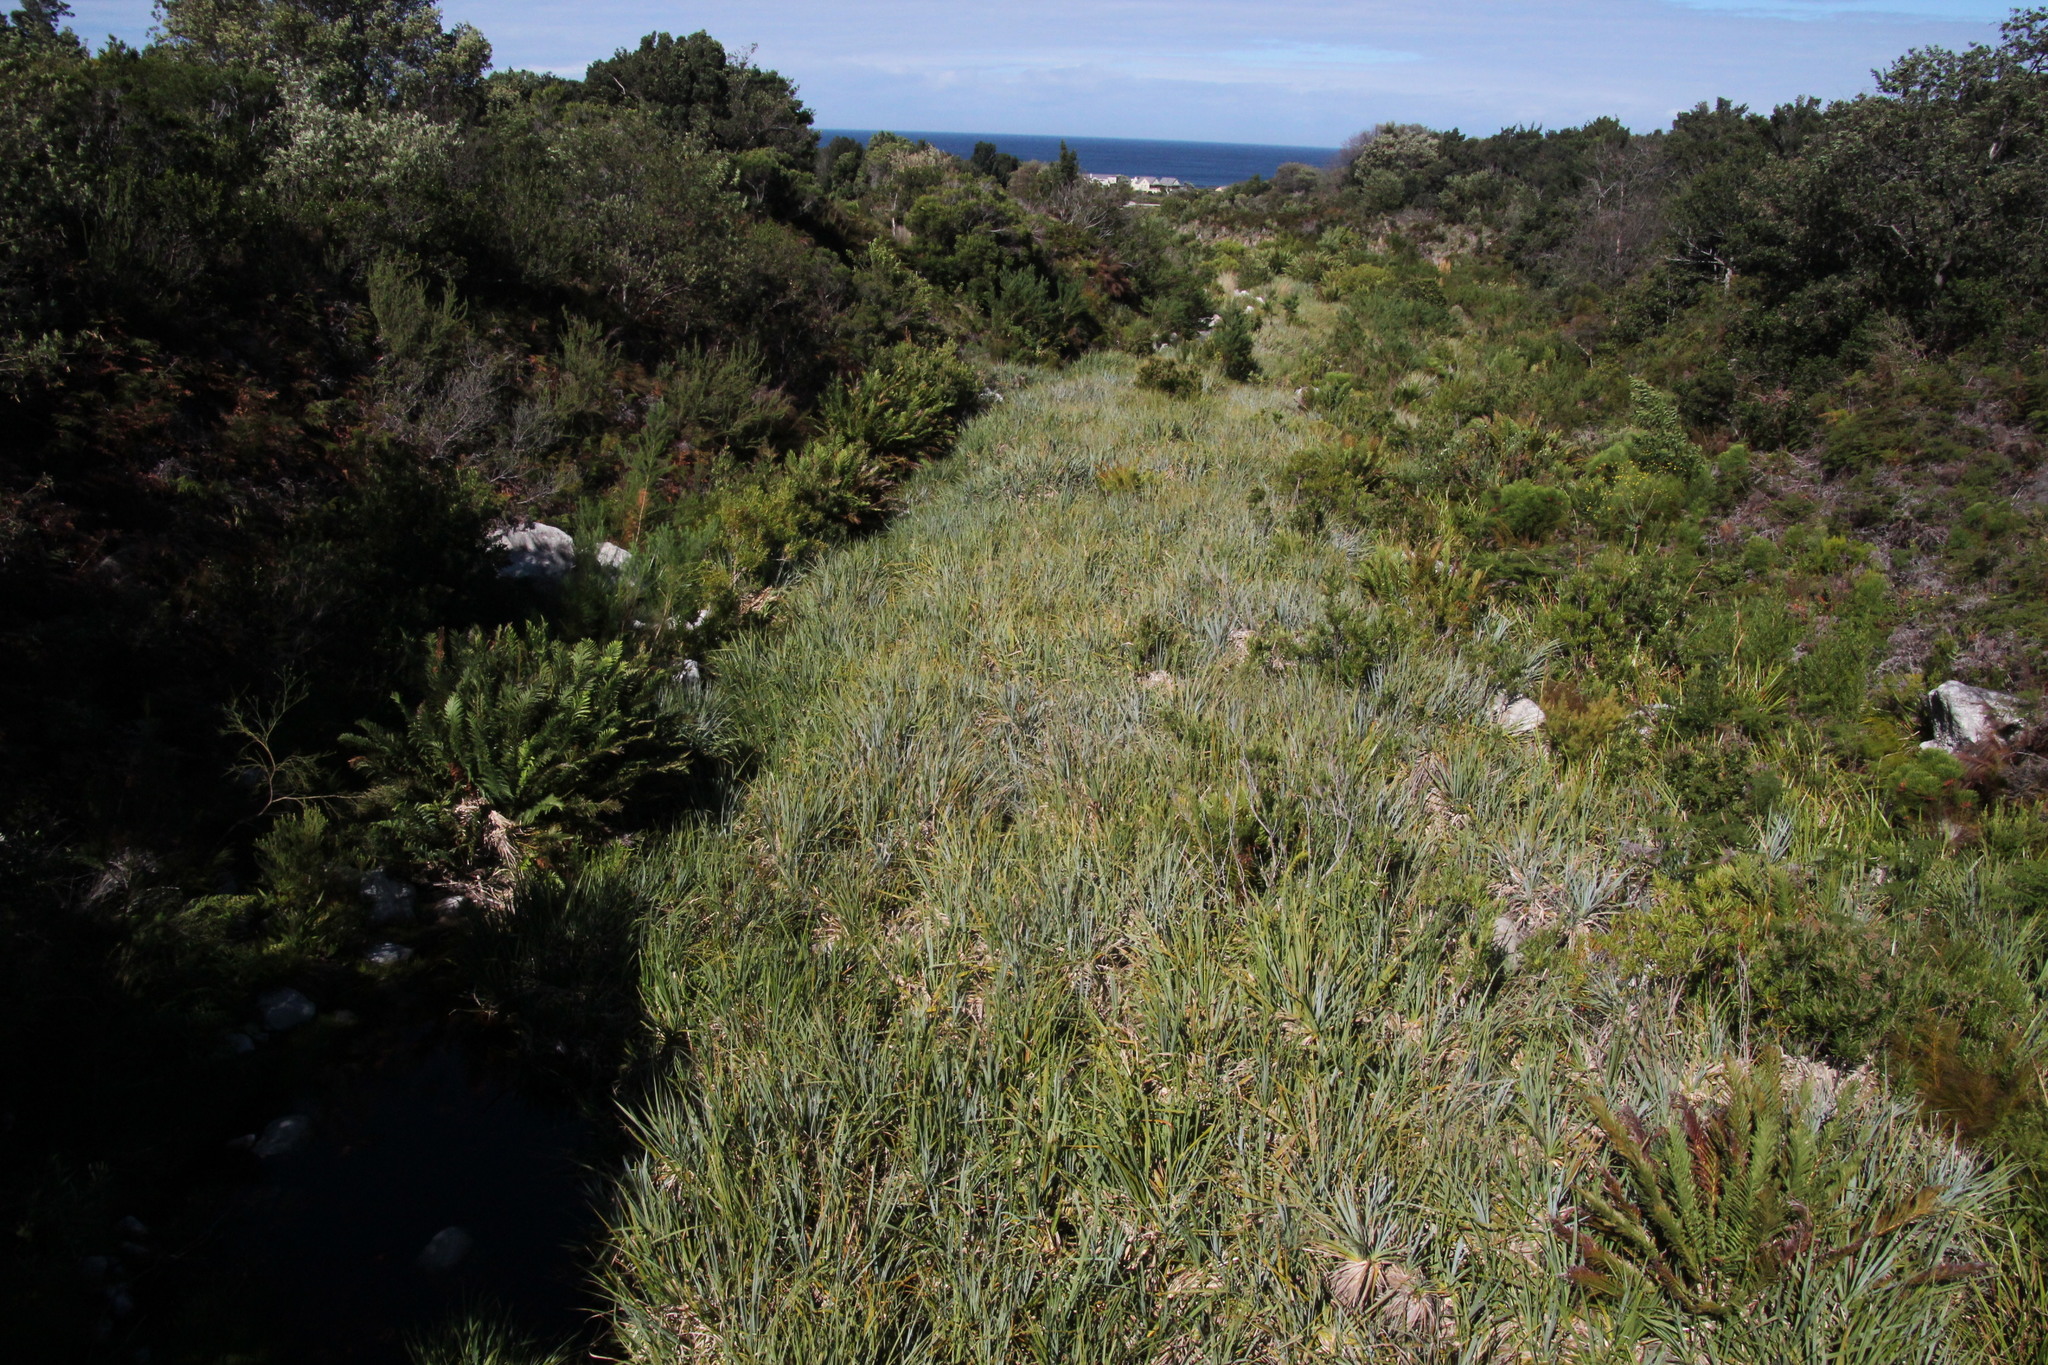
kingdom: Plantae
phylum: Tracheophyta
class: Liliopsida
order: Poales
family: Thurniaceae
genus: Prionium
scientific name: Prionium serratum
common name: Palmiet
